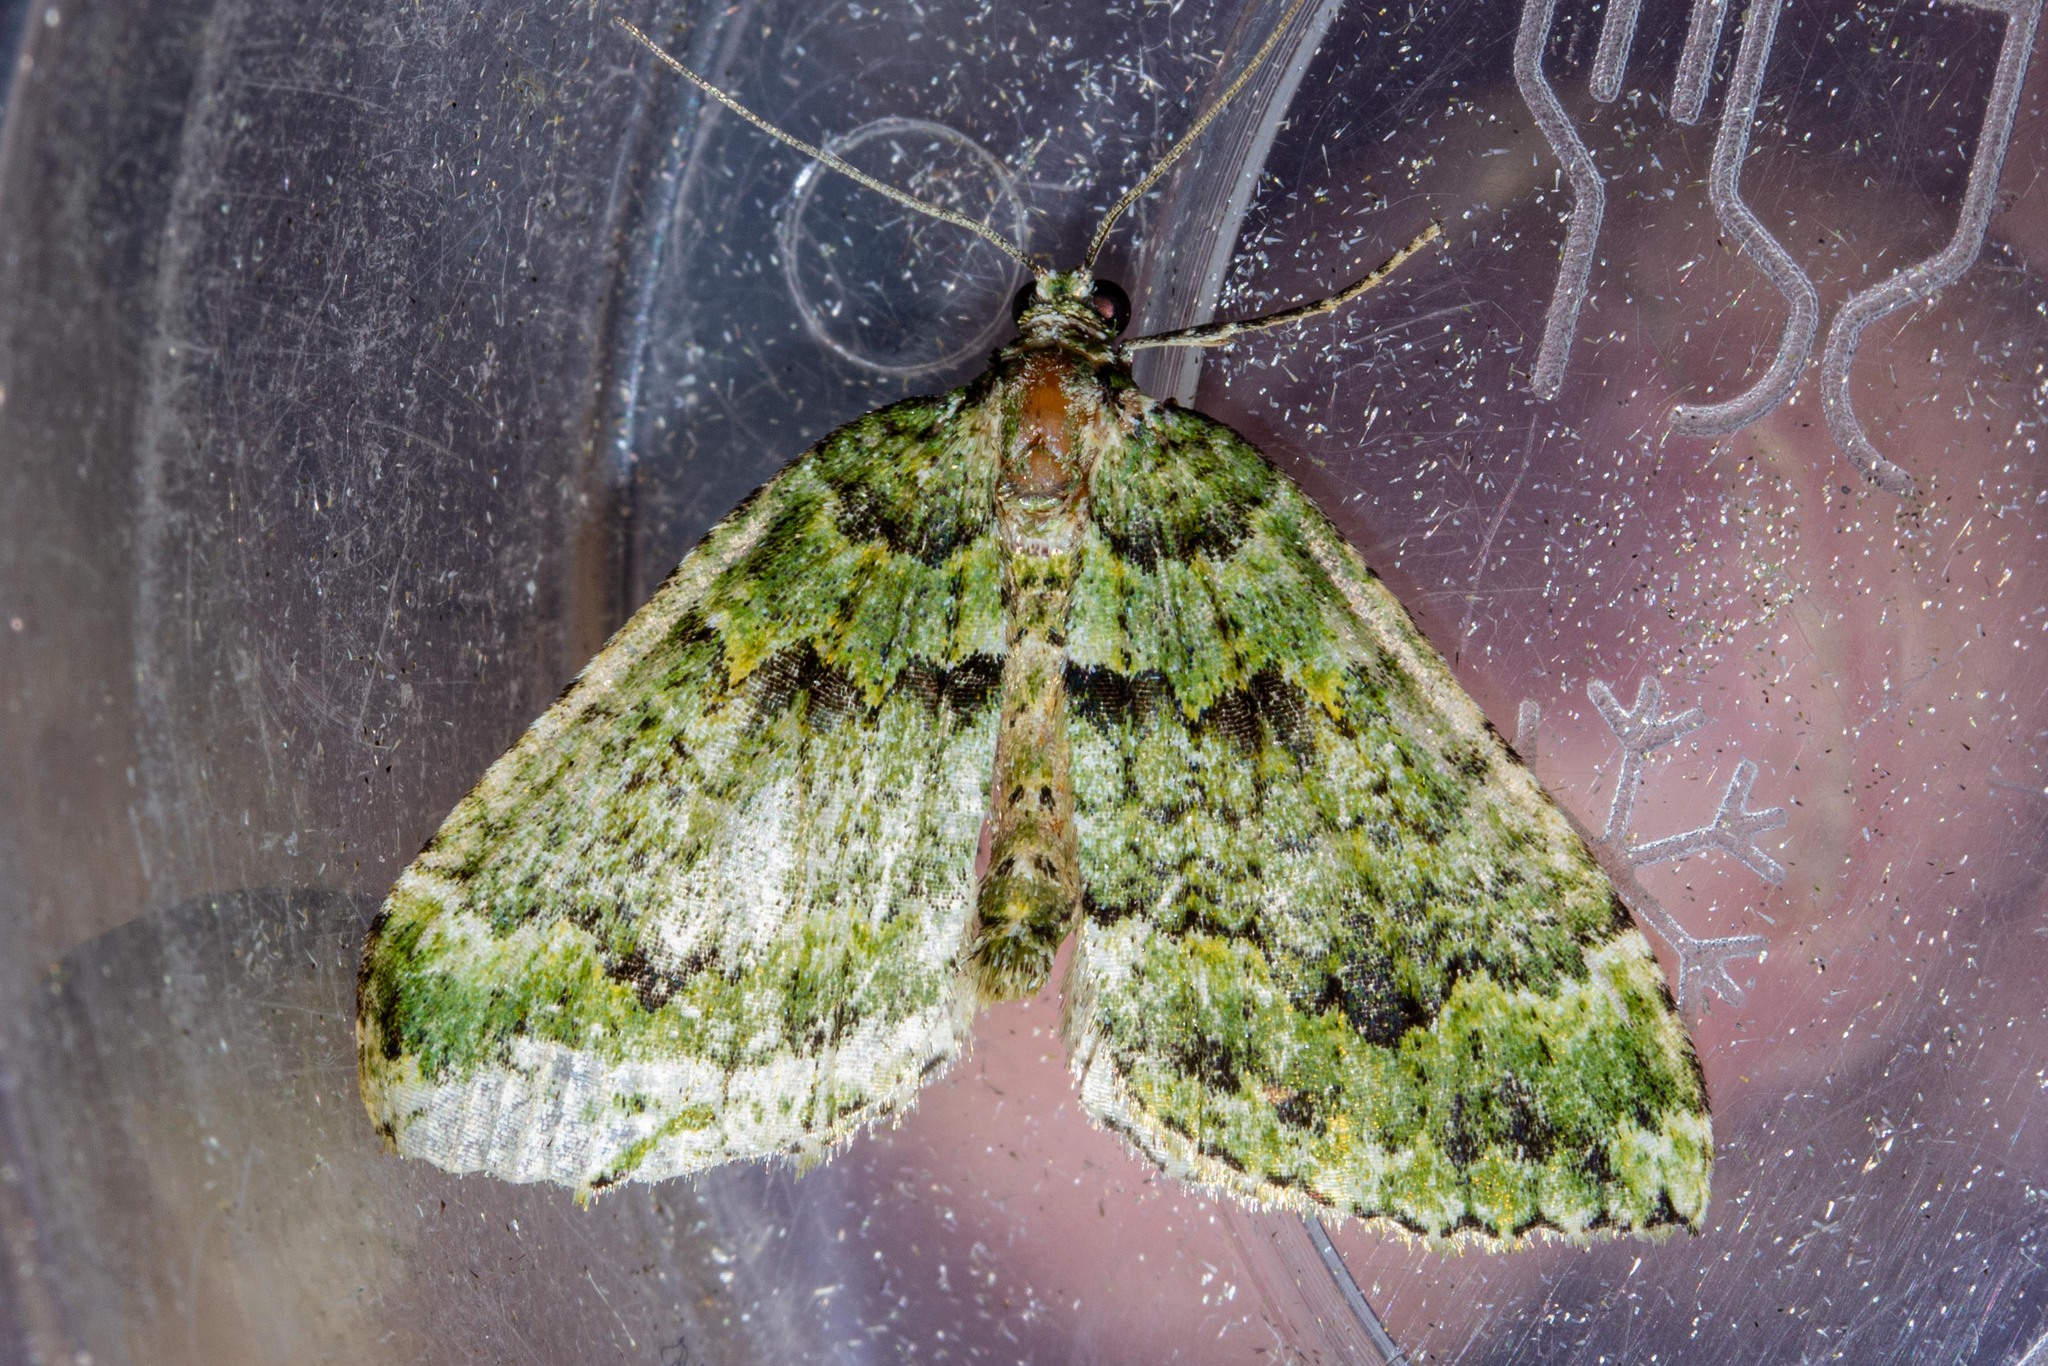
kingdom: Animalia
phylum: Arthropoda
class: Insecta
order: Lepidoptera
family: Geometridae
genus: Austrocidaria
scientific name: Austrocidaria callichlora
